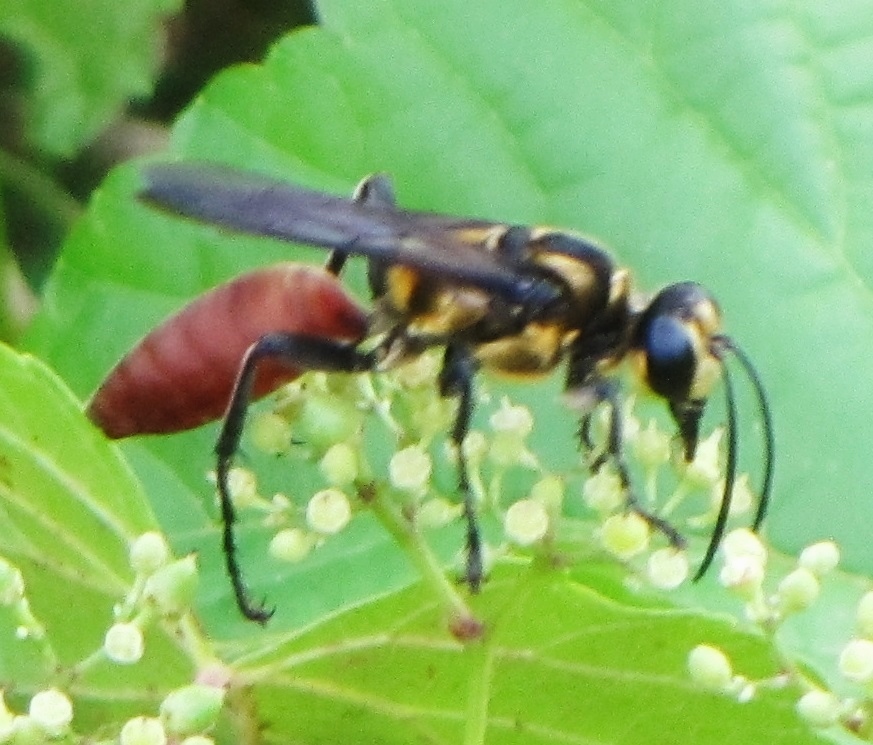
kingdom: Animalia
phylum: Arthropoda
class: Insecta
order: Hymenoptera
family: Sphecidae
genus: Sphex
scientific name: Sphex habenus
